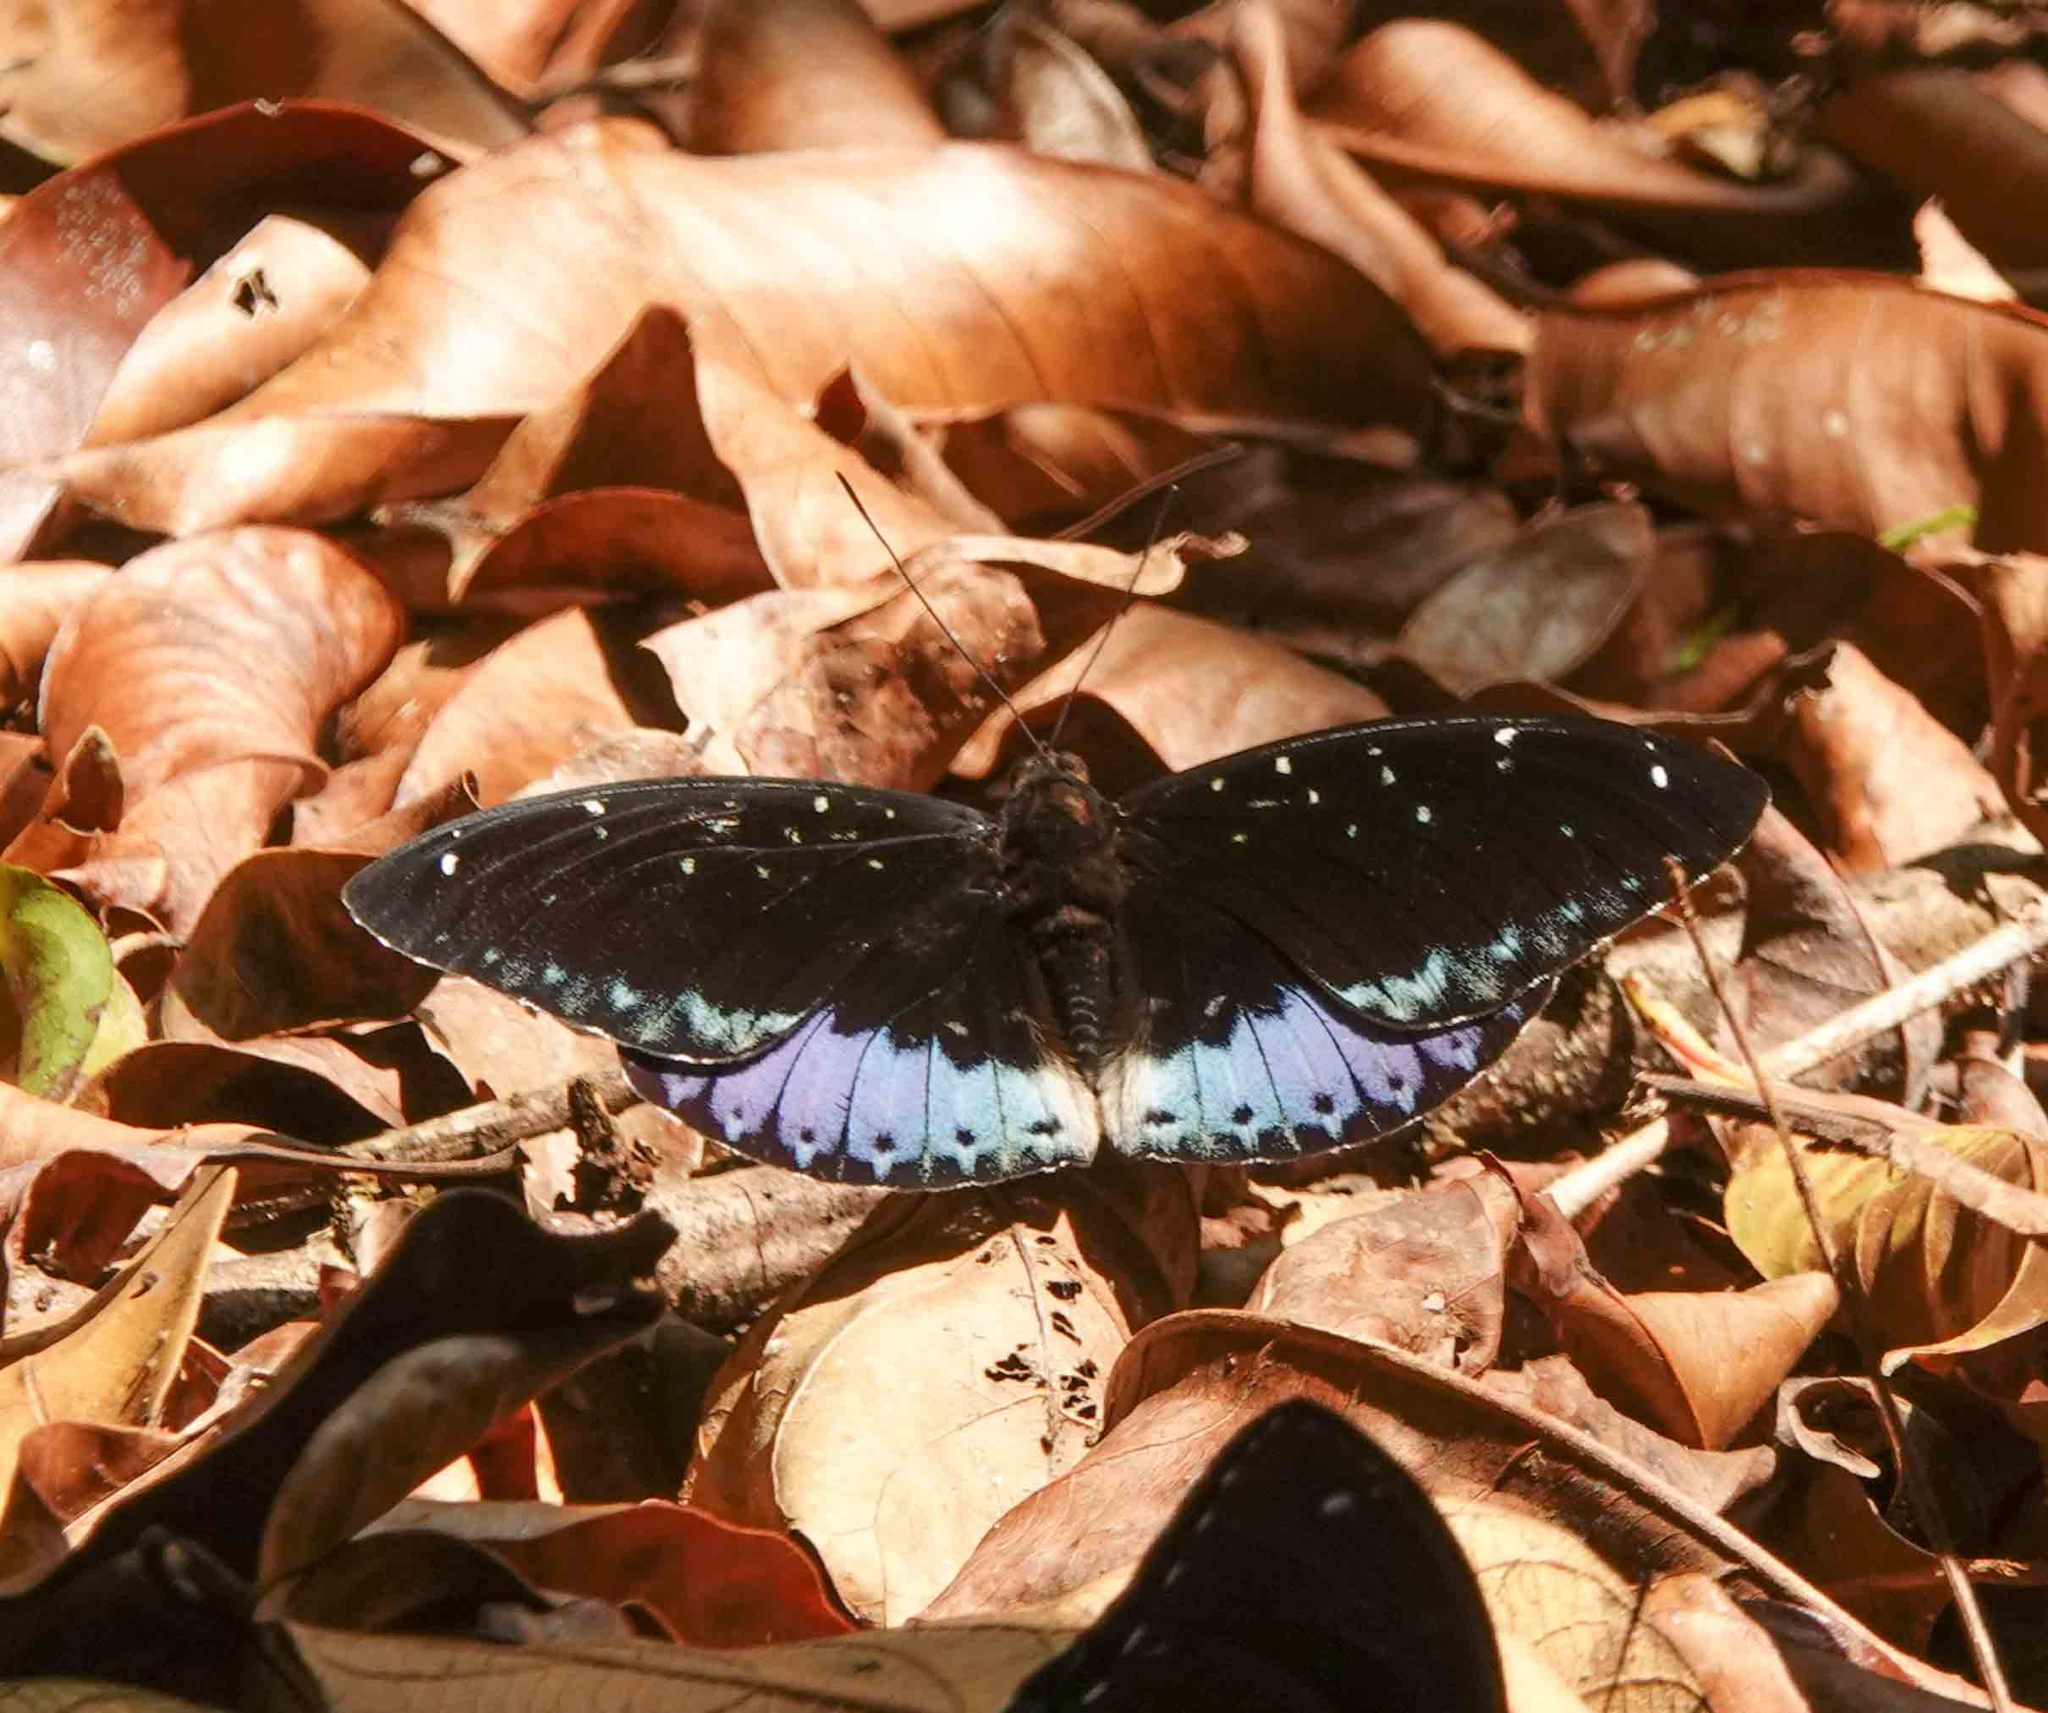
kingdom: Animalia
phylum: Arthropoda
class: Insecta
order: Lepidoptera
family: Nymphalidae
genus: Lexias
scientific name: Lexias dirtea
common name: Black-tipped archduke
